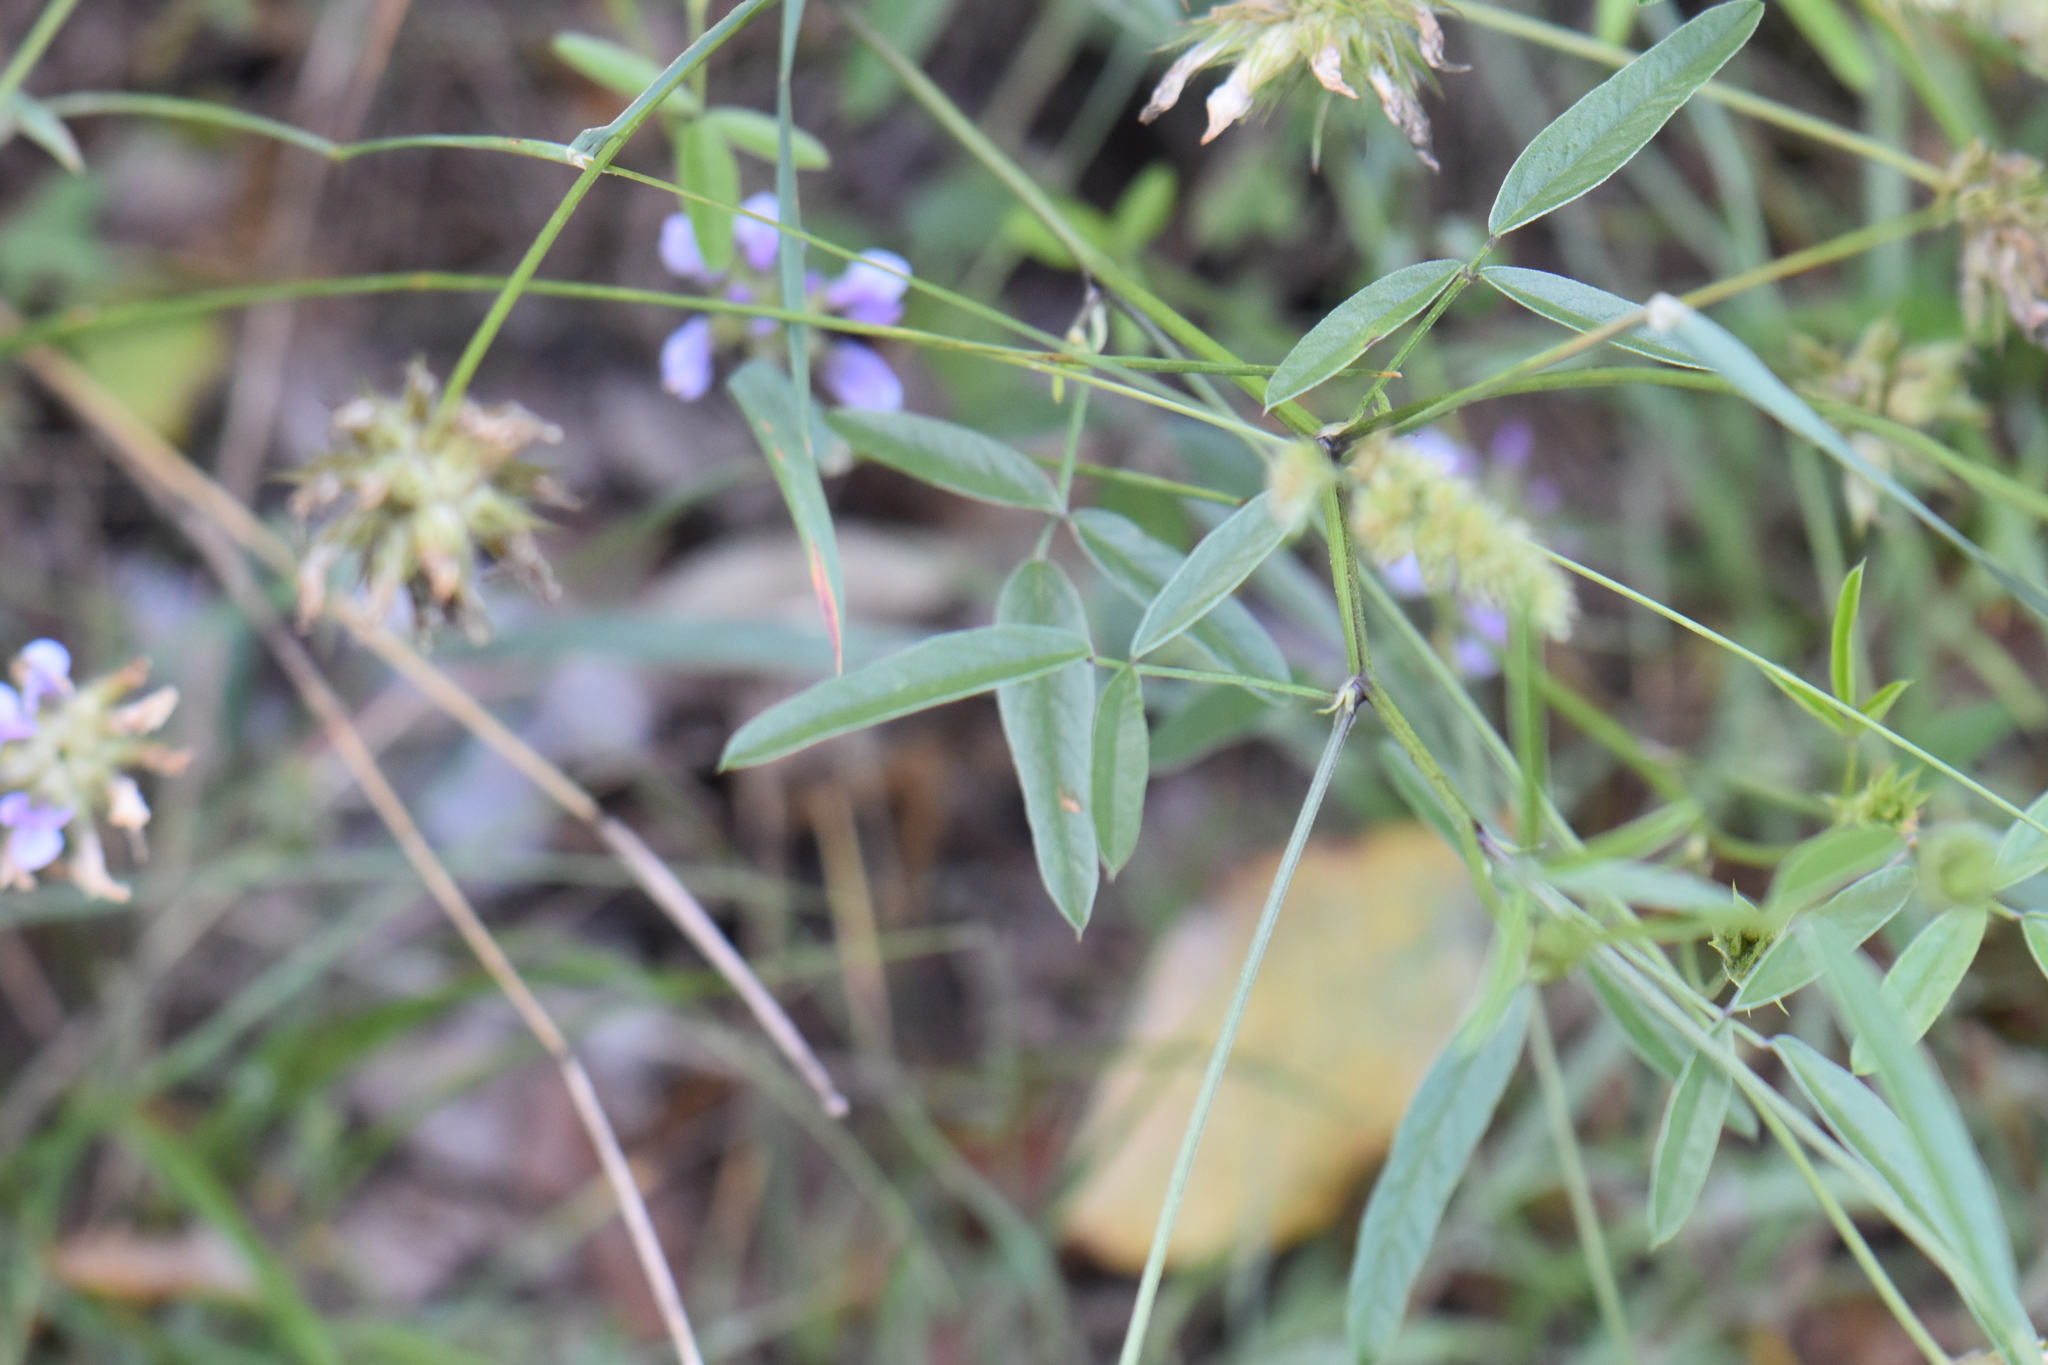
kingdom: Plantae
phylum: Tracheophyta
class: Magnoliopsida
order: Fabales
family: Fabaceae
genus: Bituminaria
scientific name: Bituminaria bituminosa
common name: Arabian pea
